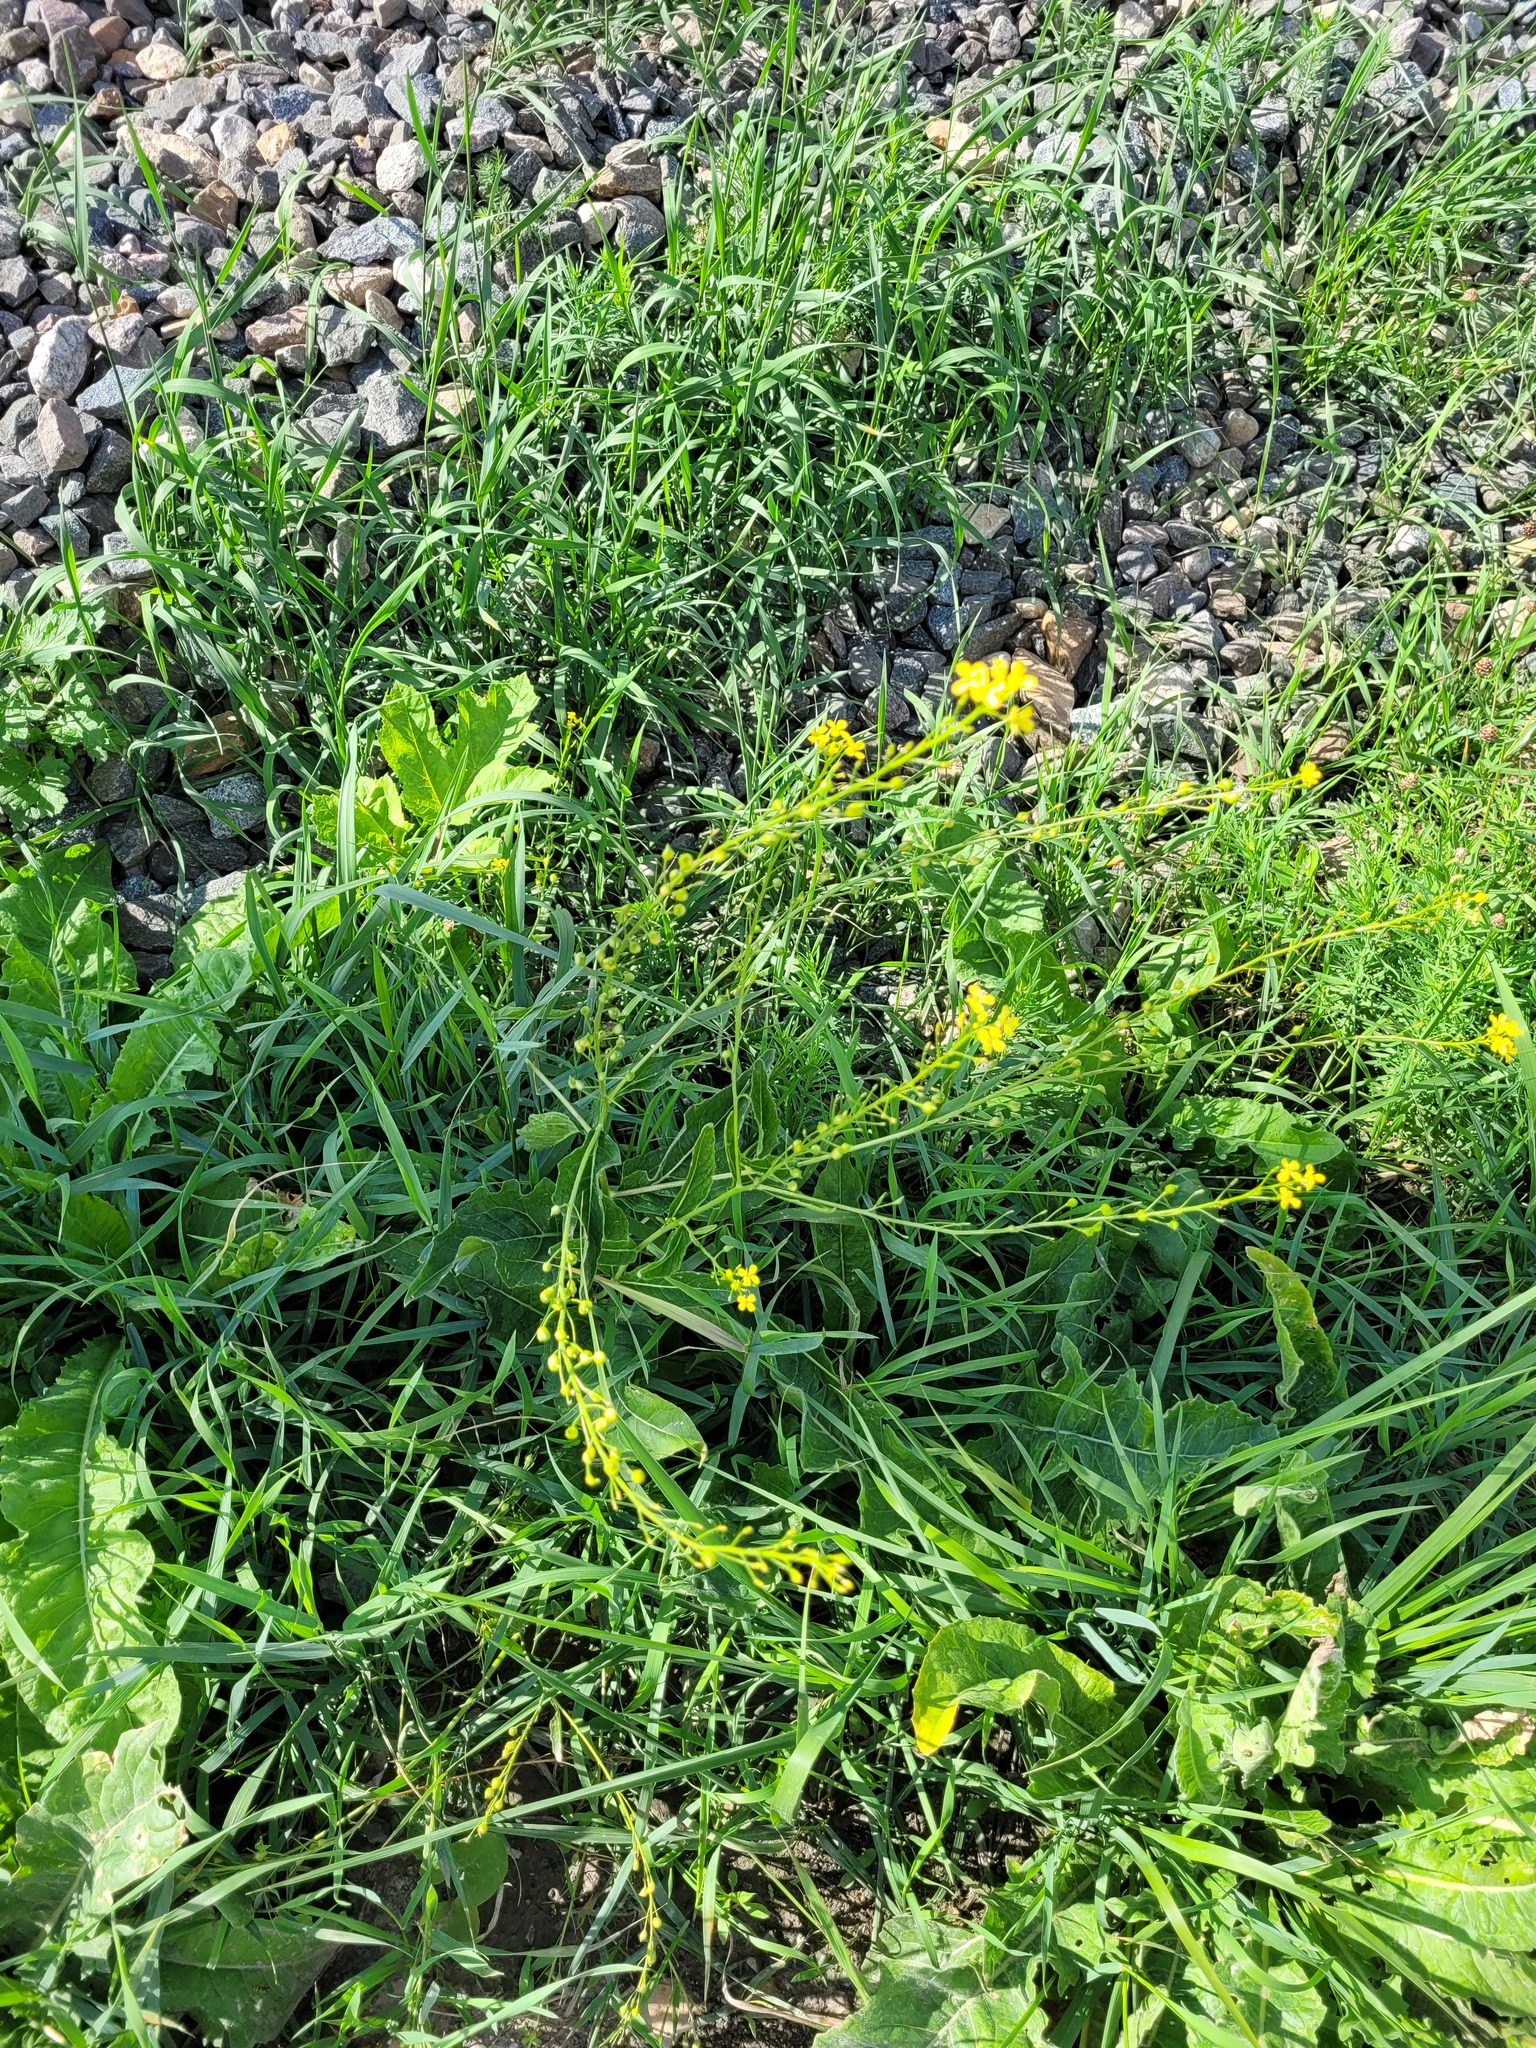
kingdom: Plantae
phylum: Tracheophyta
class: Magnoliopsida
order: Brassicales
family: Brassicaceae
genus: Bunias
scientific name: Bunias orientalis
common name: Warty-cabbage
